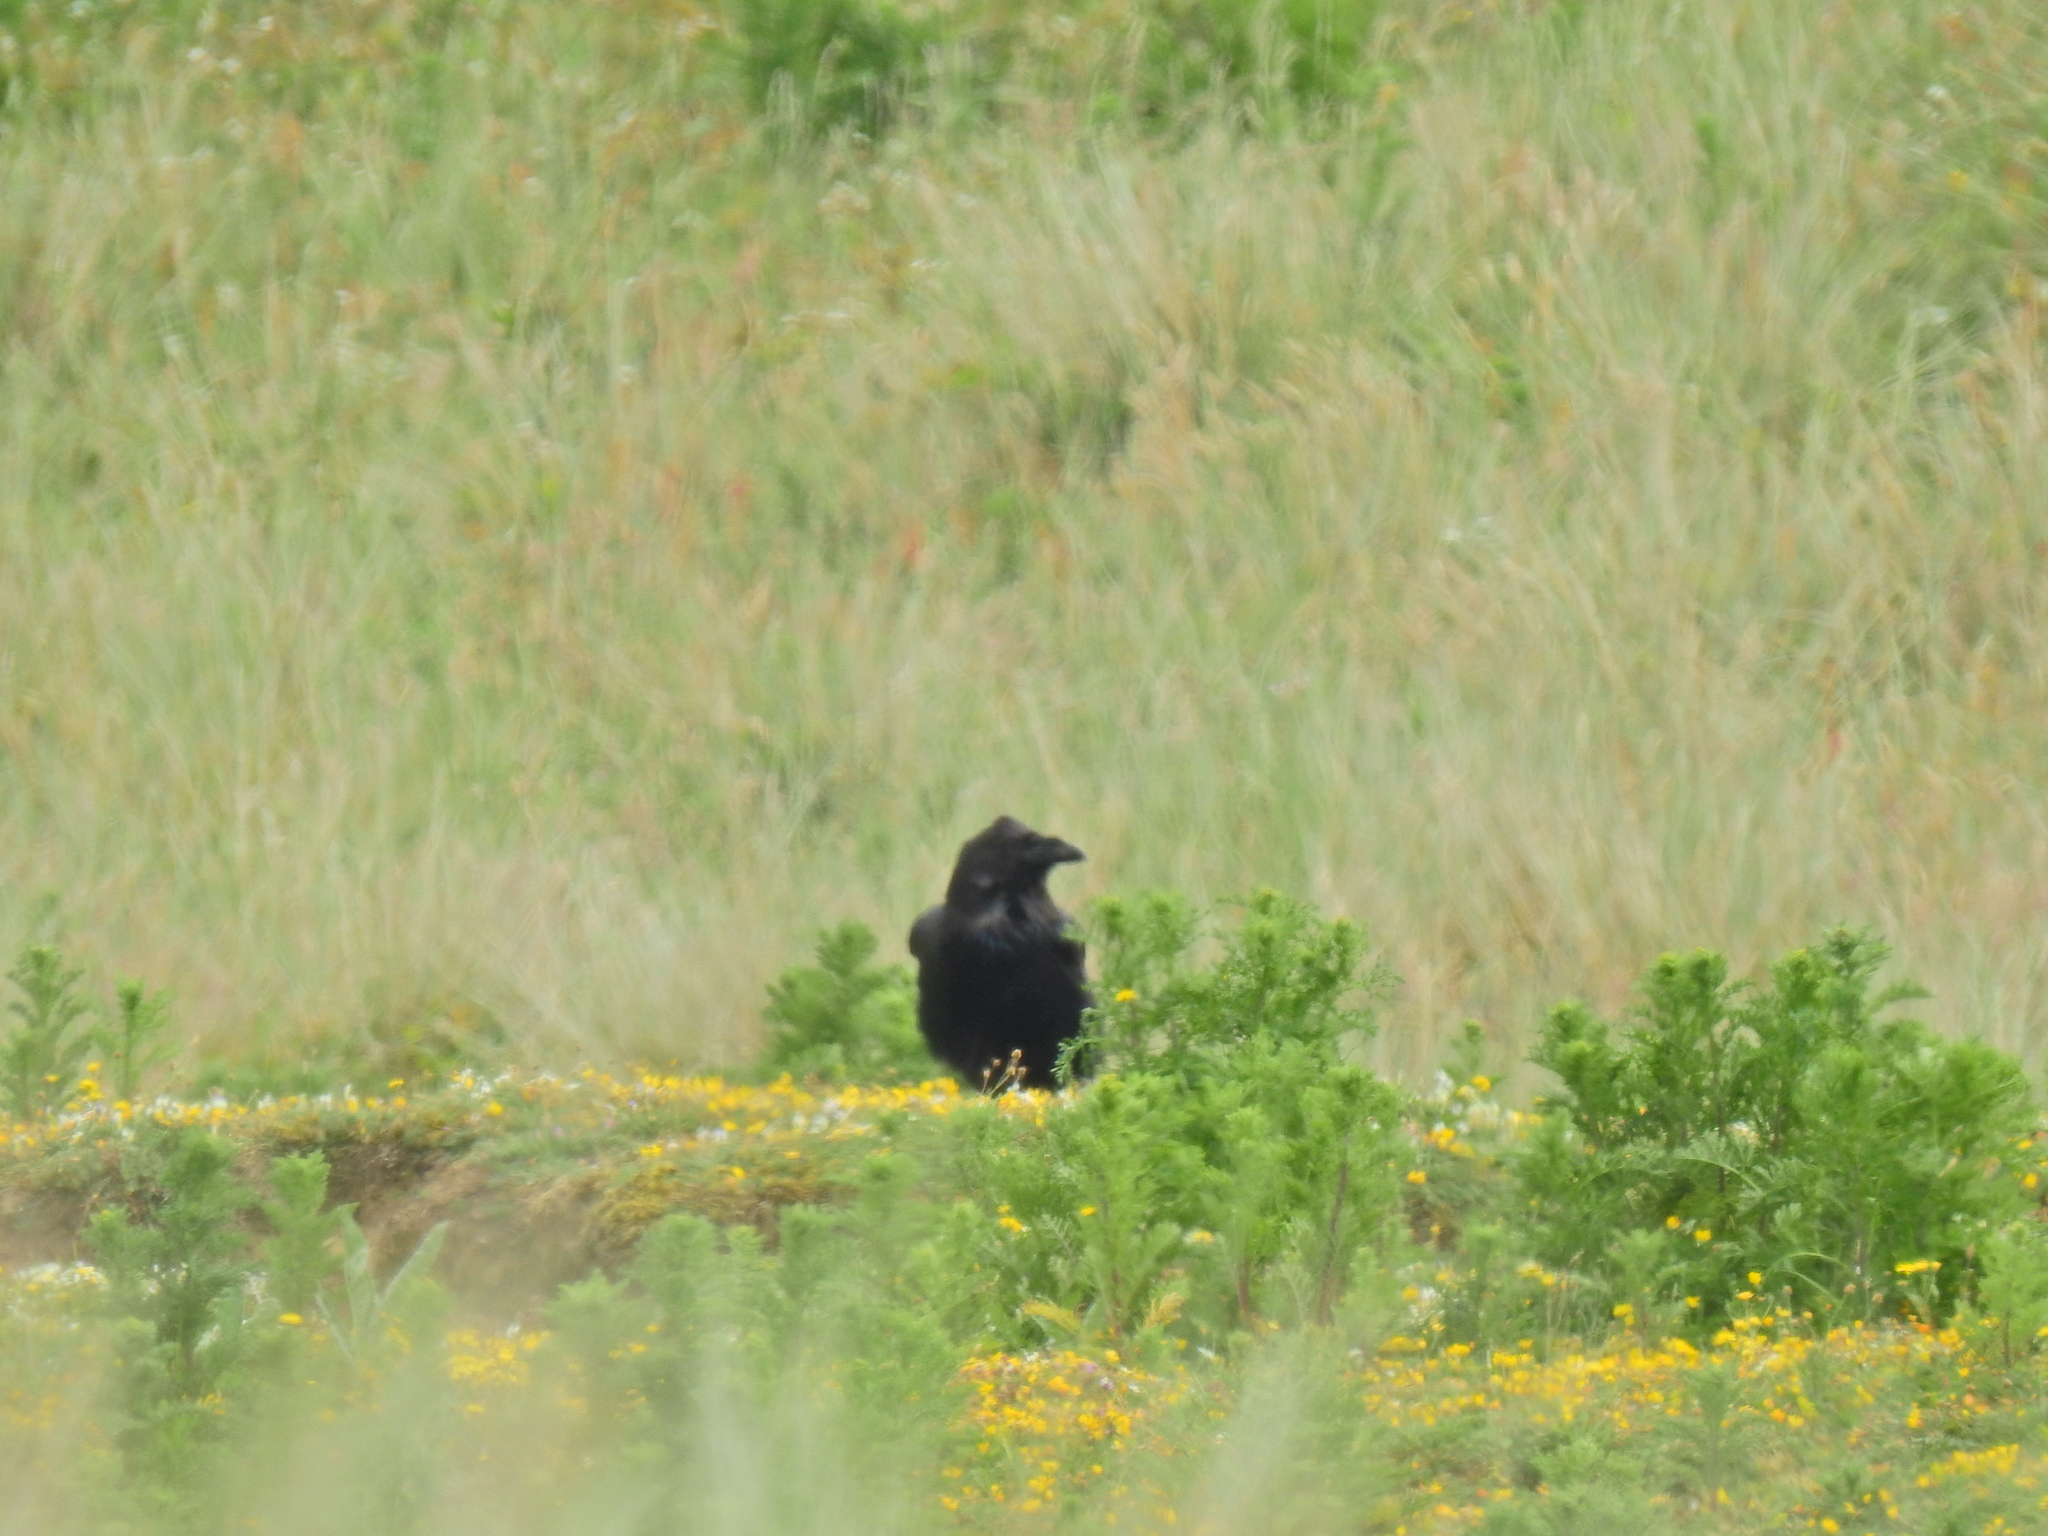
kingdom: Animalia
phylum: Chordata
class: Aves
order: Passeriformes
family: Corvidae
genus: Corvus
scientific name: Corvus corax
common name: Common raven
